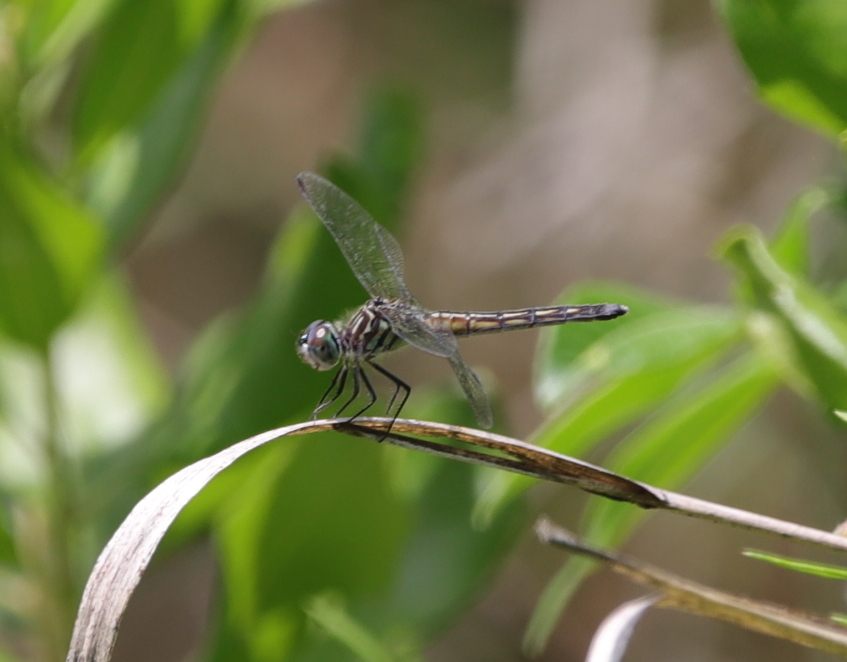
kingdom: Animalia
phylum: Arthropoda
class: Insecta
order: Odonata
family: Libellulidae
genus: Pachydiplax
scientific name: Pachydiplax longipennis
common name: Blue dasher
